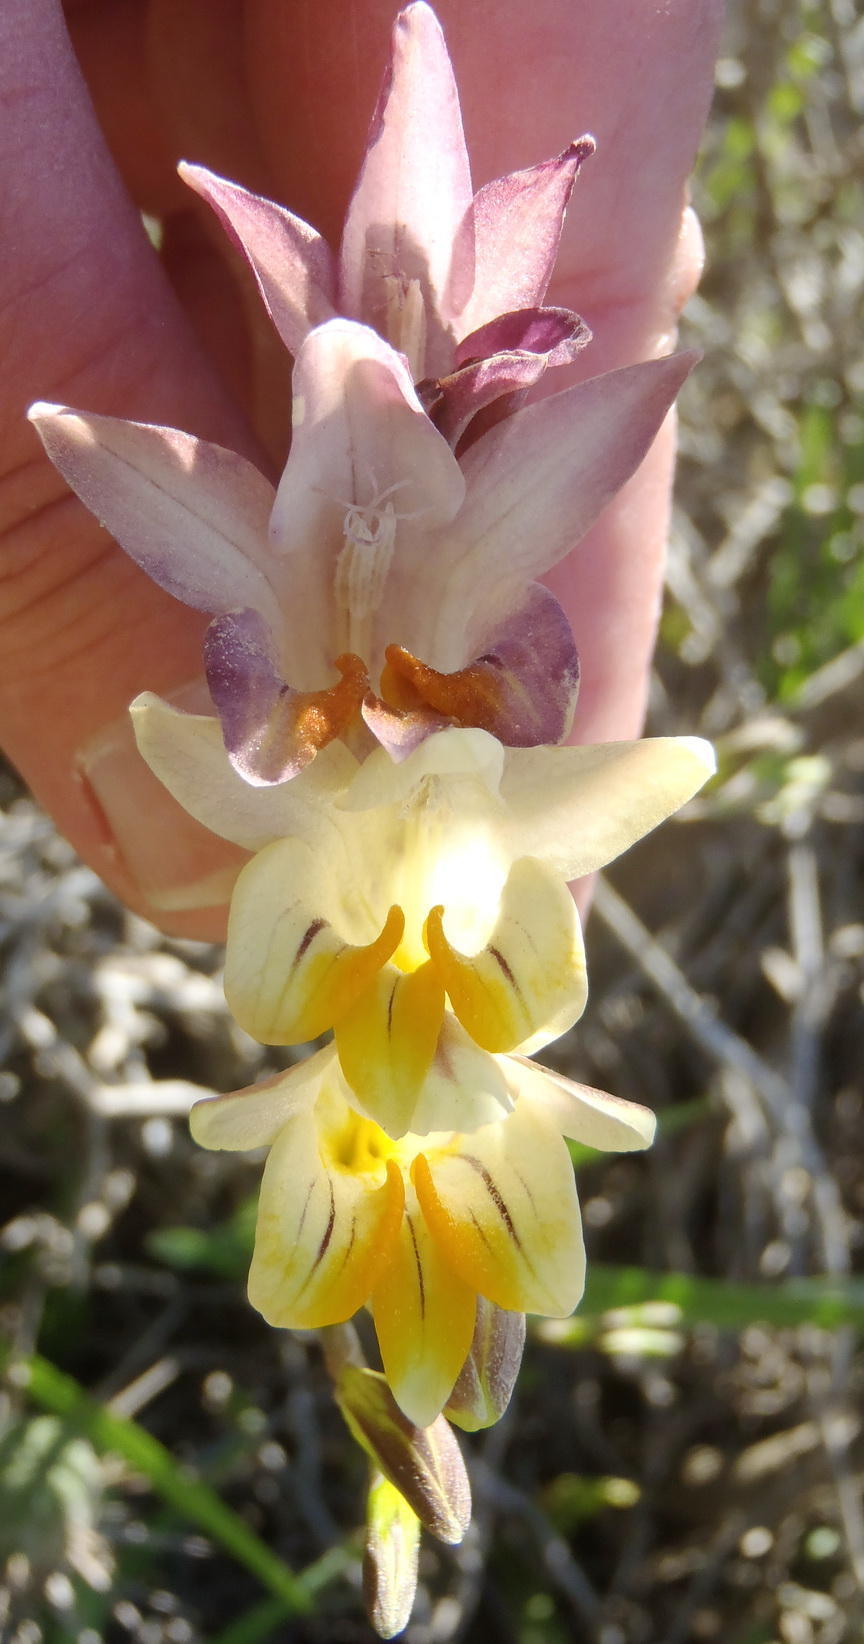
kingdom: Plantae
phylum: Tracheophyta
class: Liliopsida
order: Asparagales
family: Iridaceae
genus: Freesia
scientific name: Freesia corymbosa
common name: Common freesia
